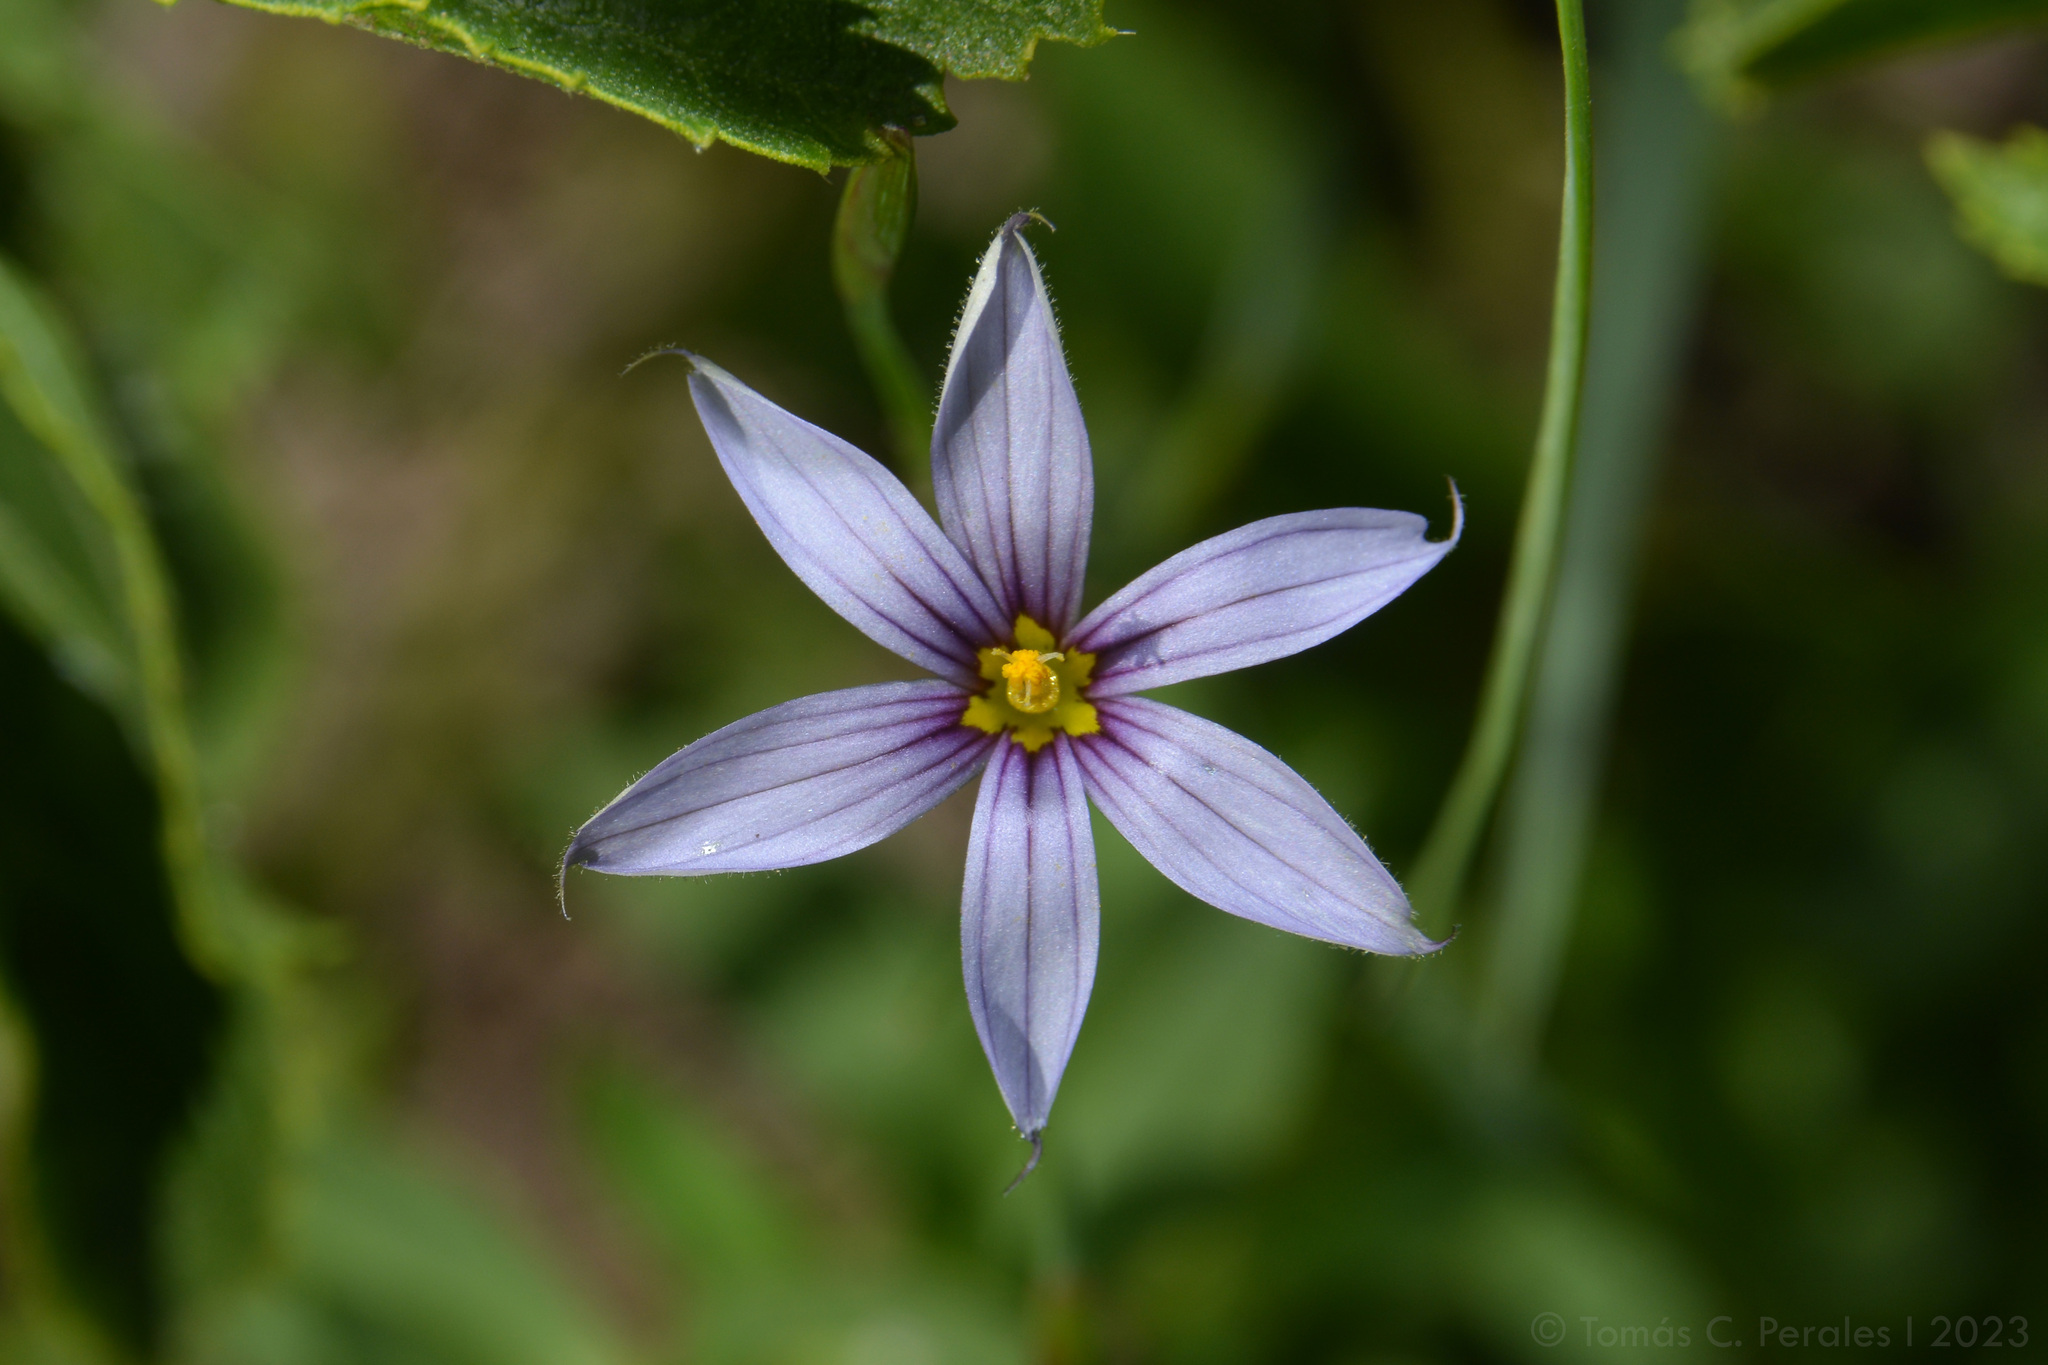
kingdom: Plantae
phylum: Tracheophyta
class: Liliopsida
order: Asparagales
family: Iridaceae
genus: Sisyrinchium
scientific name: Sisyrinchium platense
